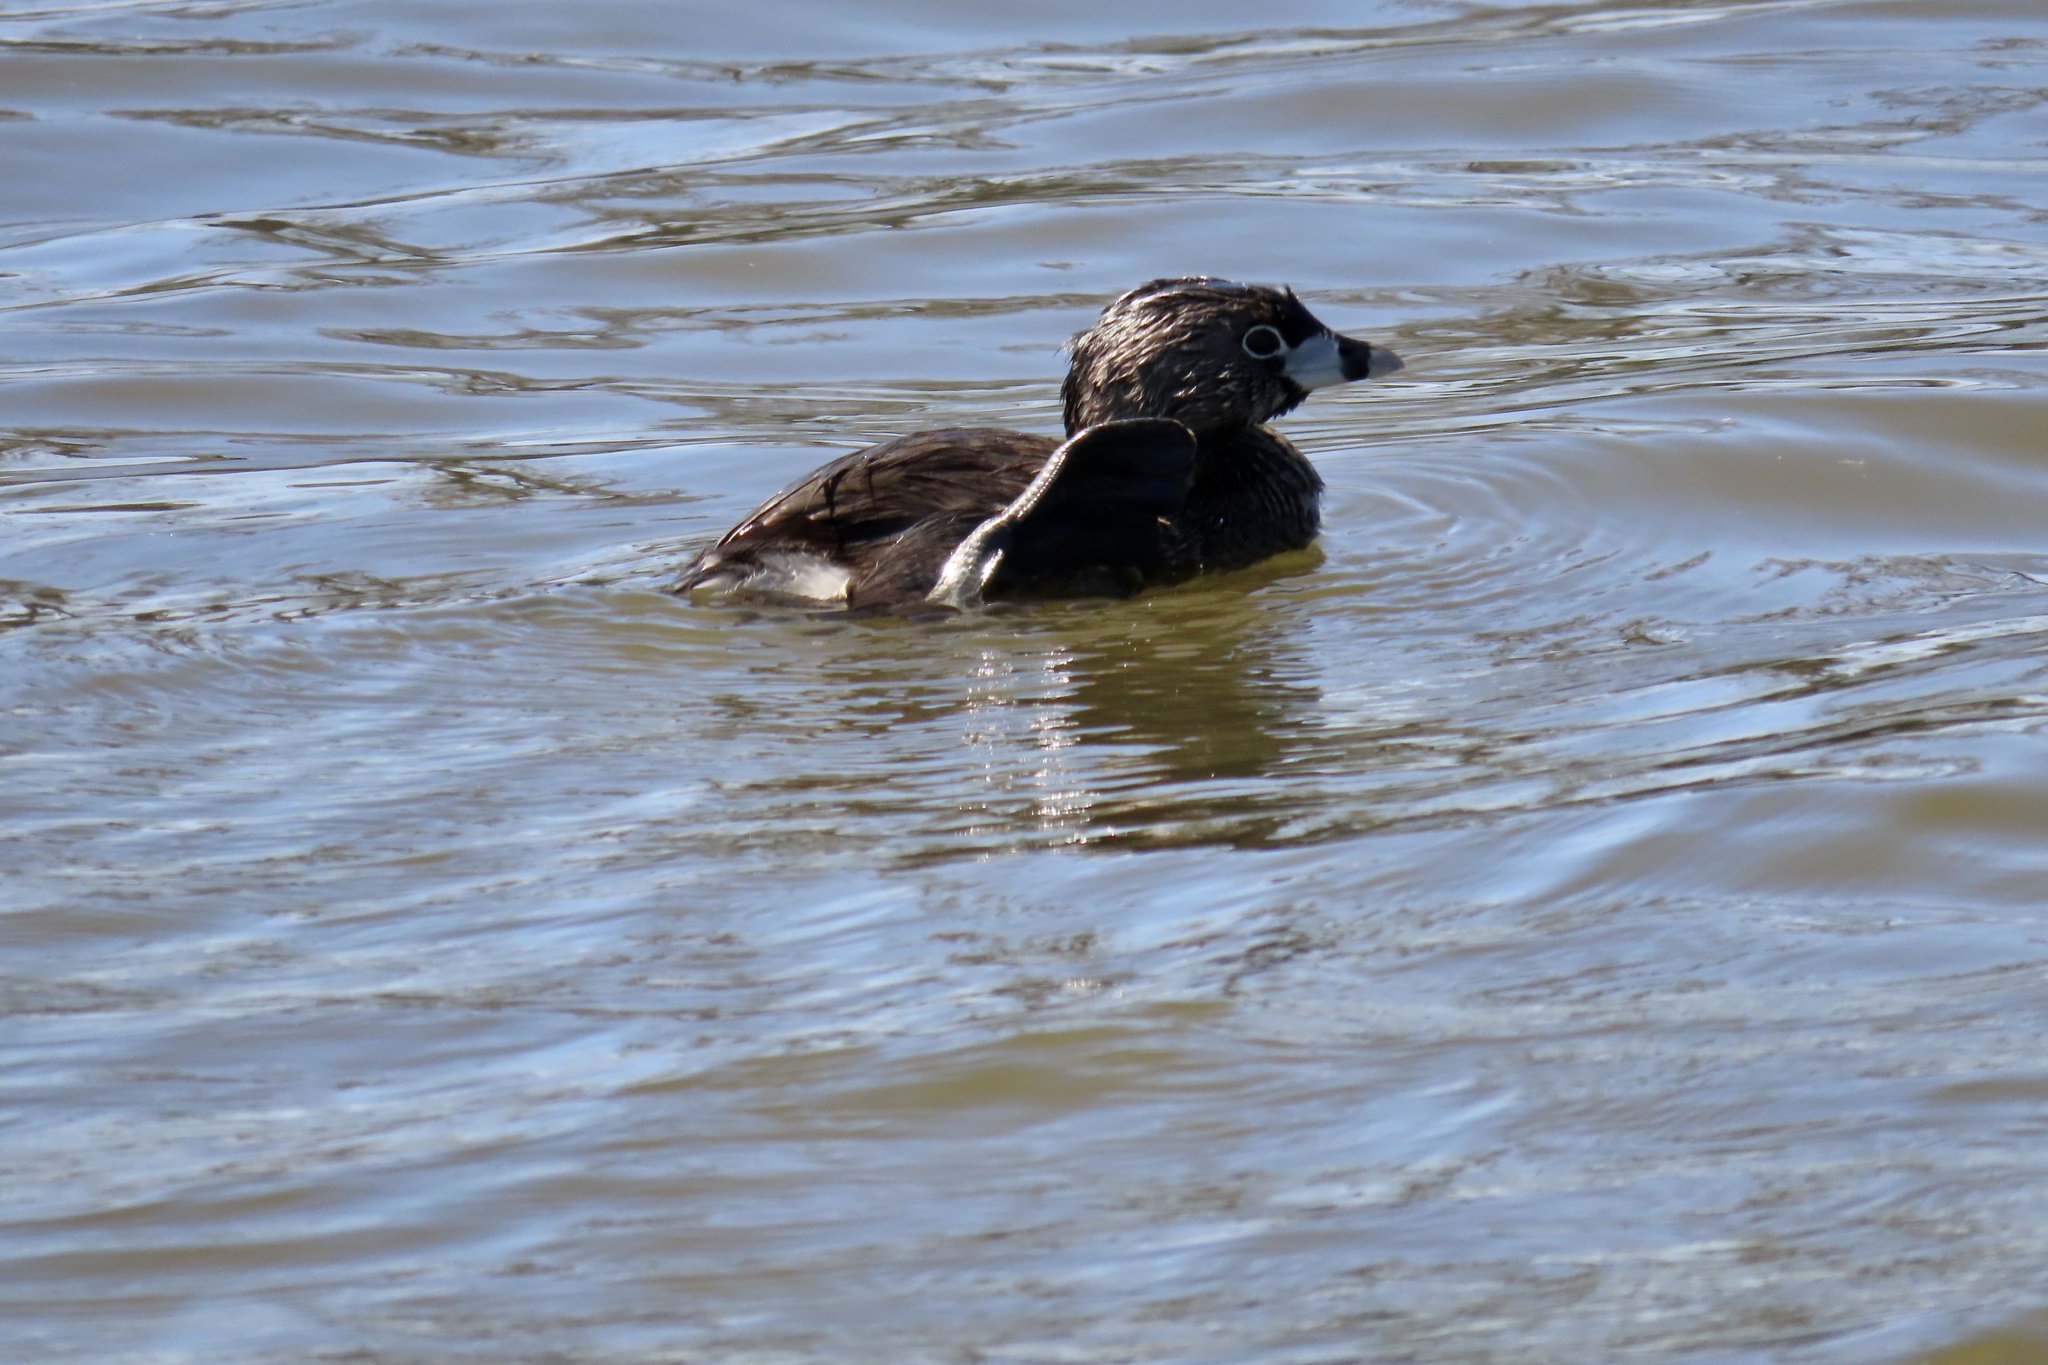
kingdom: Animalia
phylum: Chordata
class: Aves
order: Podicipediformes
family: Podicipedidae
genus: Podilymbus
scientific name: Podilymbus podiceps
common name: Pied-billed grebe
